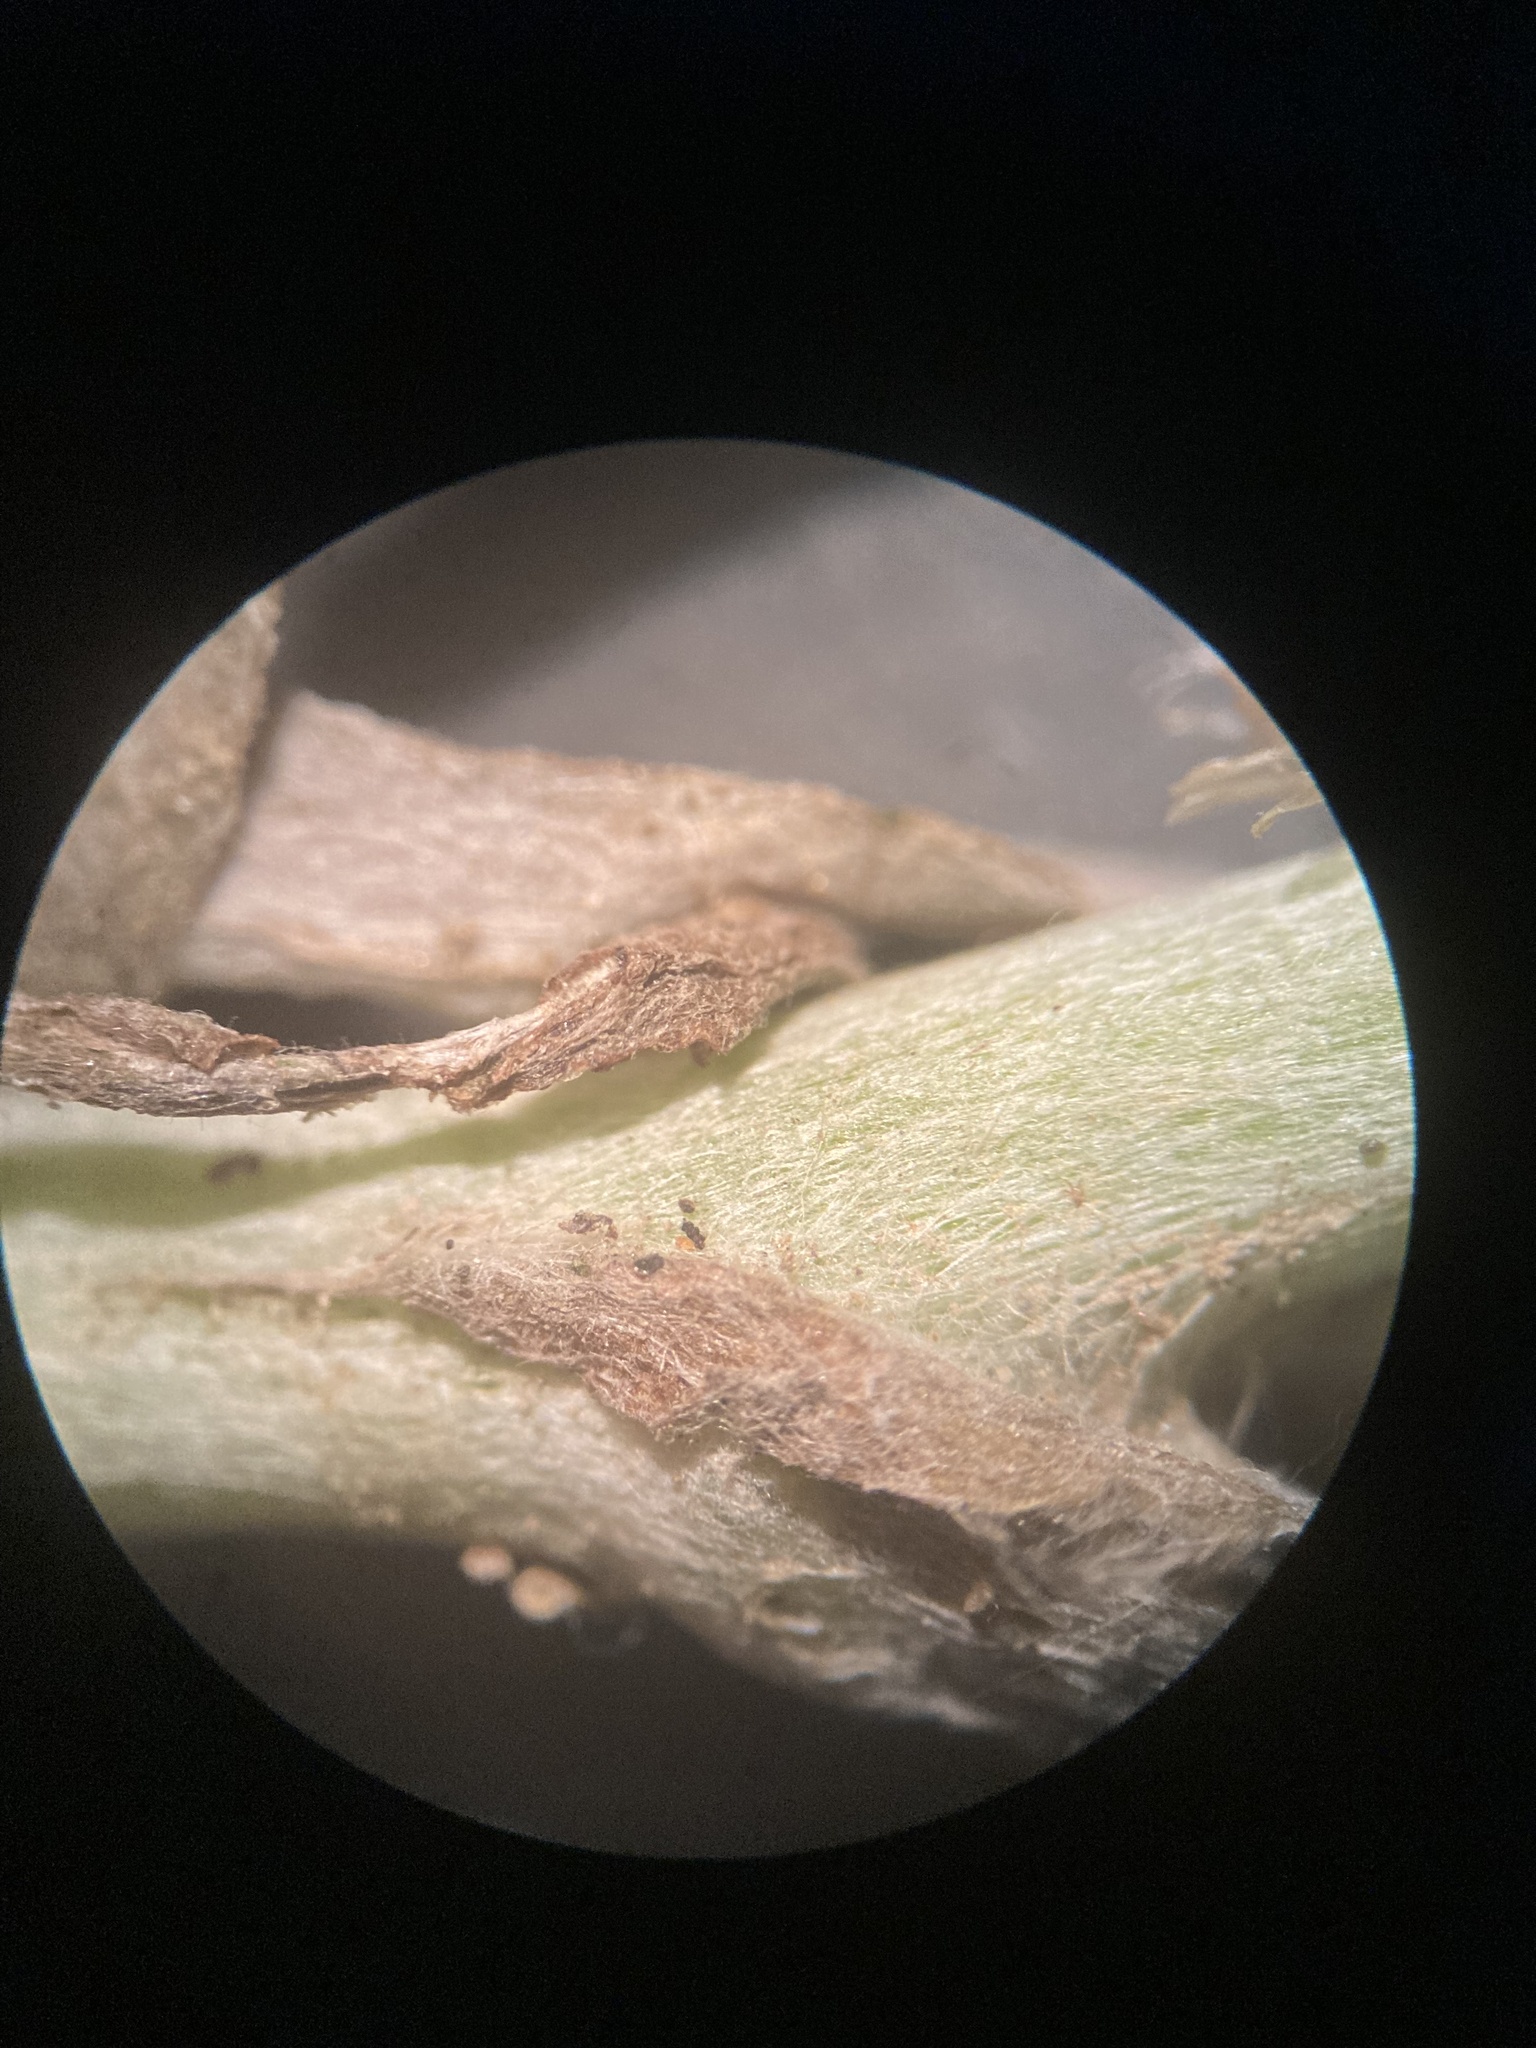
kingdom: Plantae
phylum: Tracheophyta
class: Magnoliopsida
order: Asterales
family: Asteraceae
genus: Helichrysum
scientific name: Helichrysum luteoalbum
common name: Daisy
